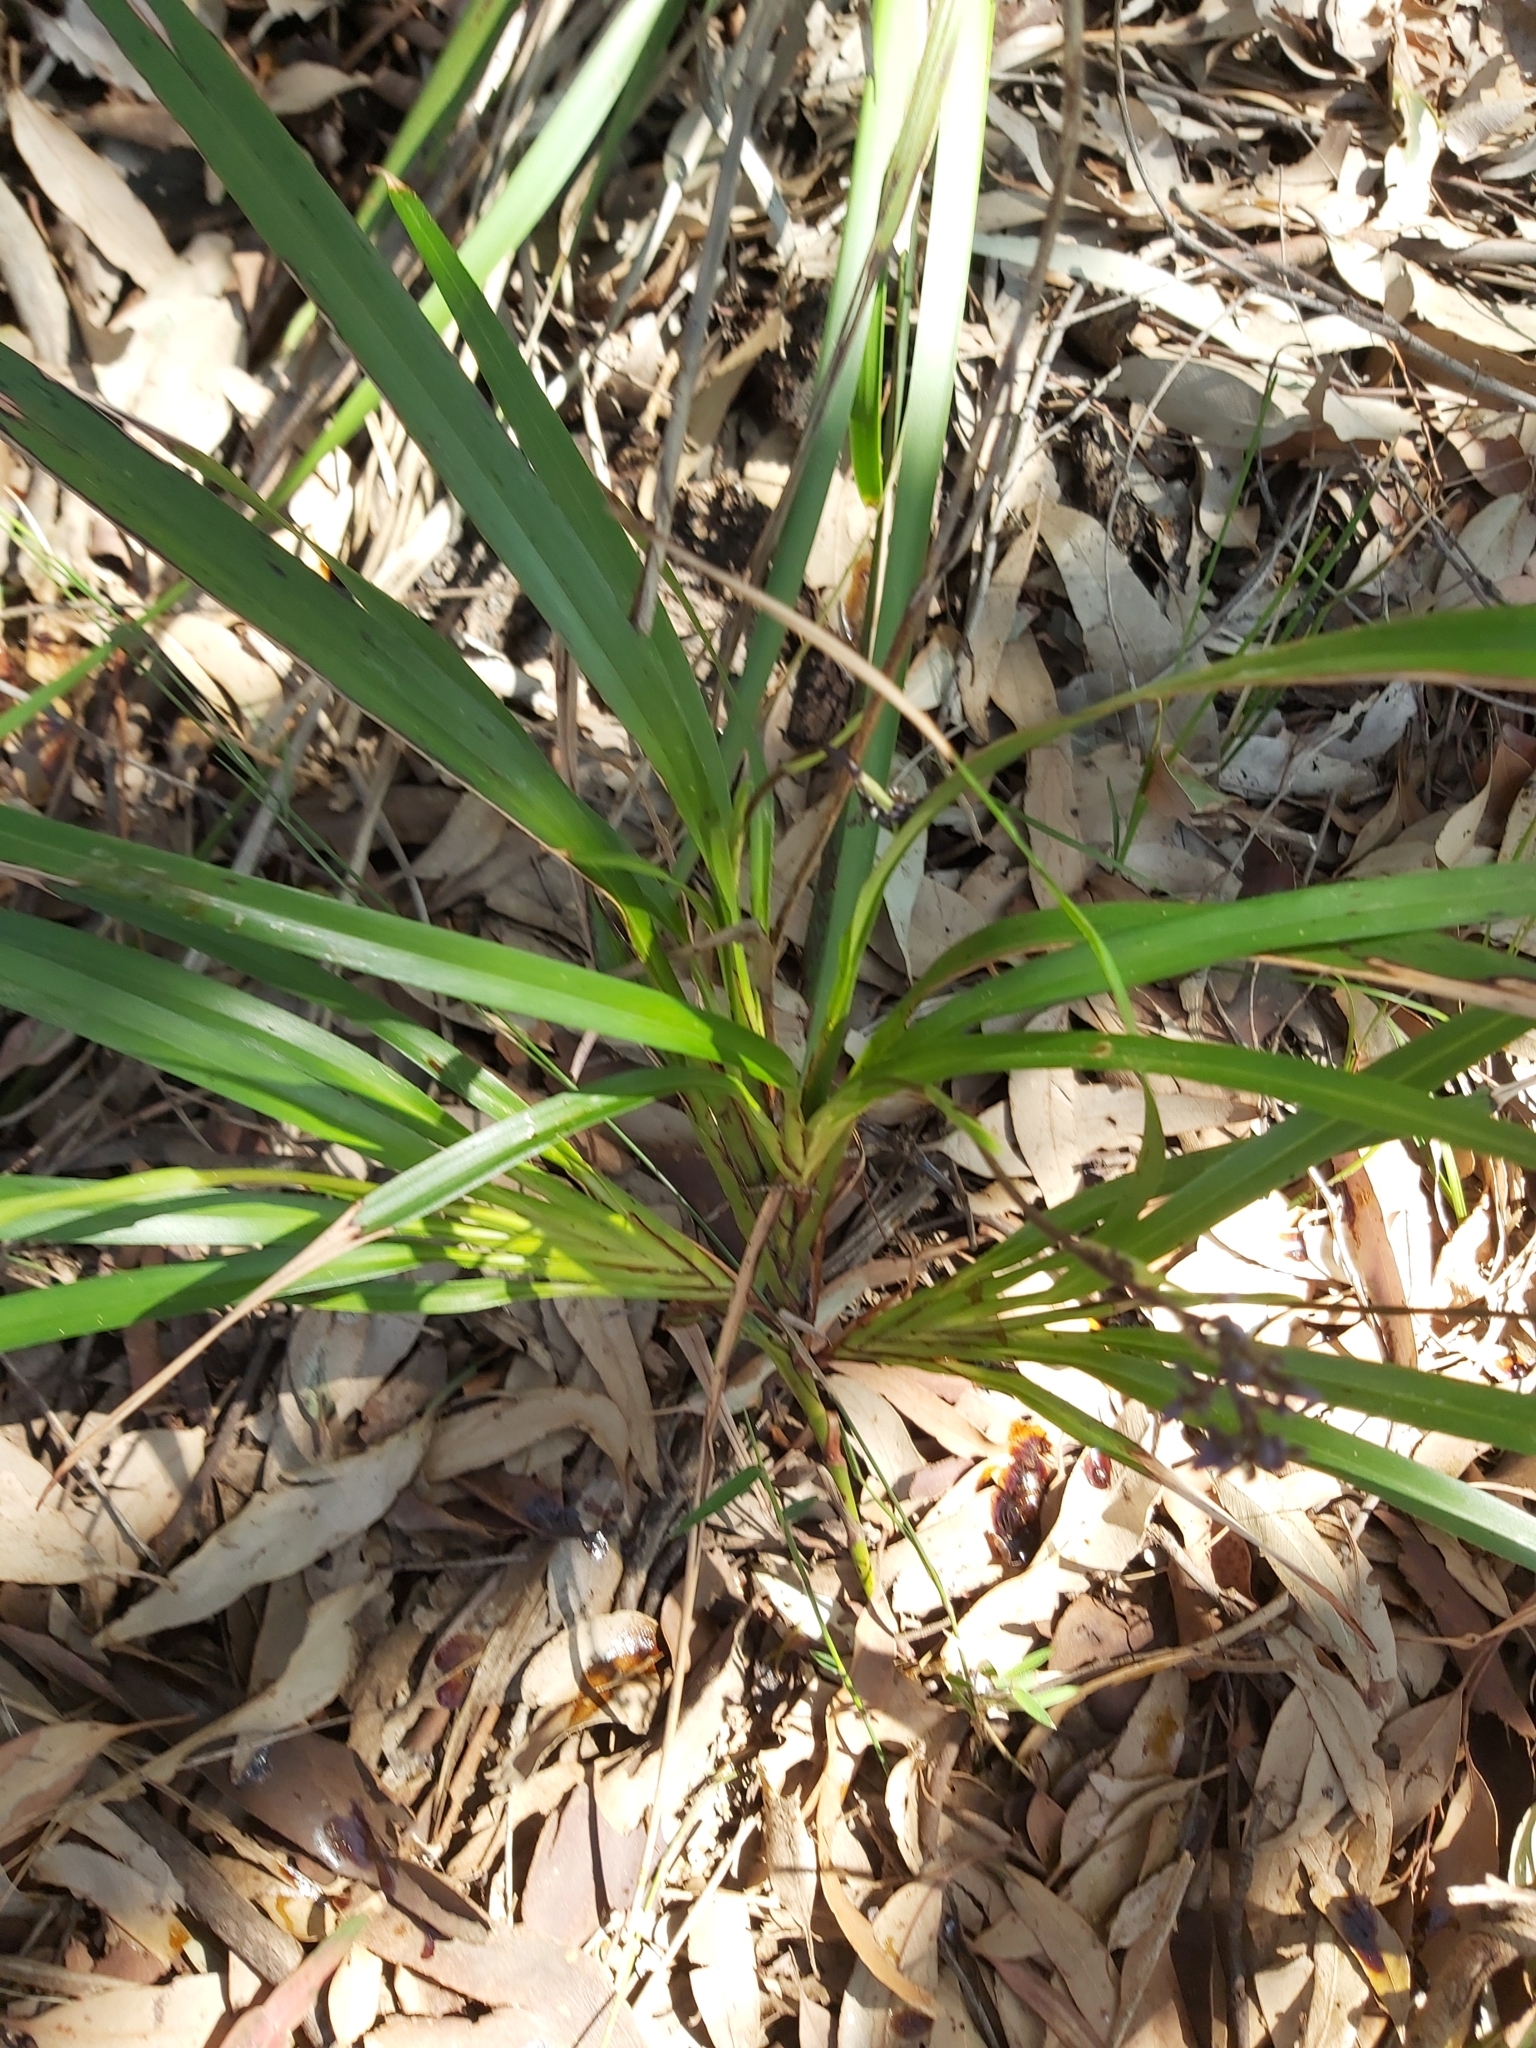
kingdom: Plantae
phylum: Tracheophyta
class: Liliopsida
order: Asparagales
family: Asphodelaceae
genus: Dianella
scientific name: Dianella caerulea
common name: Blue flax-lily
